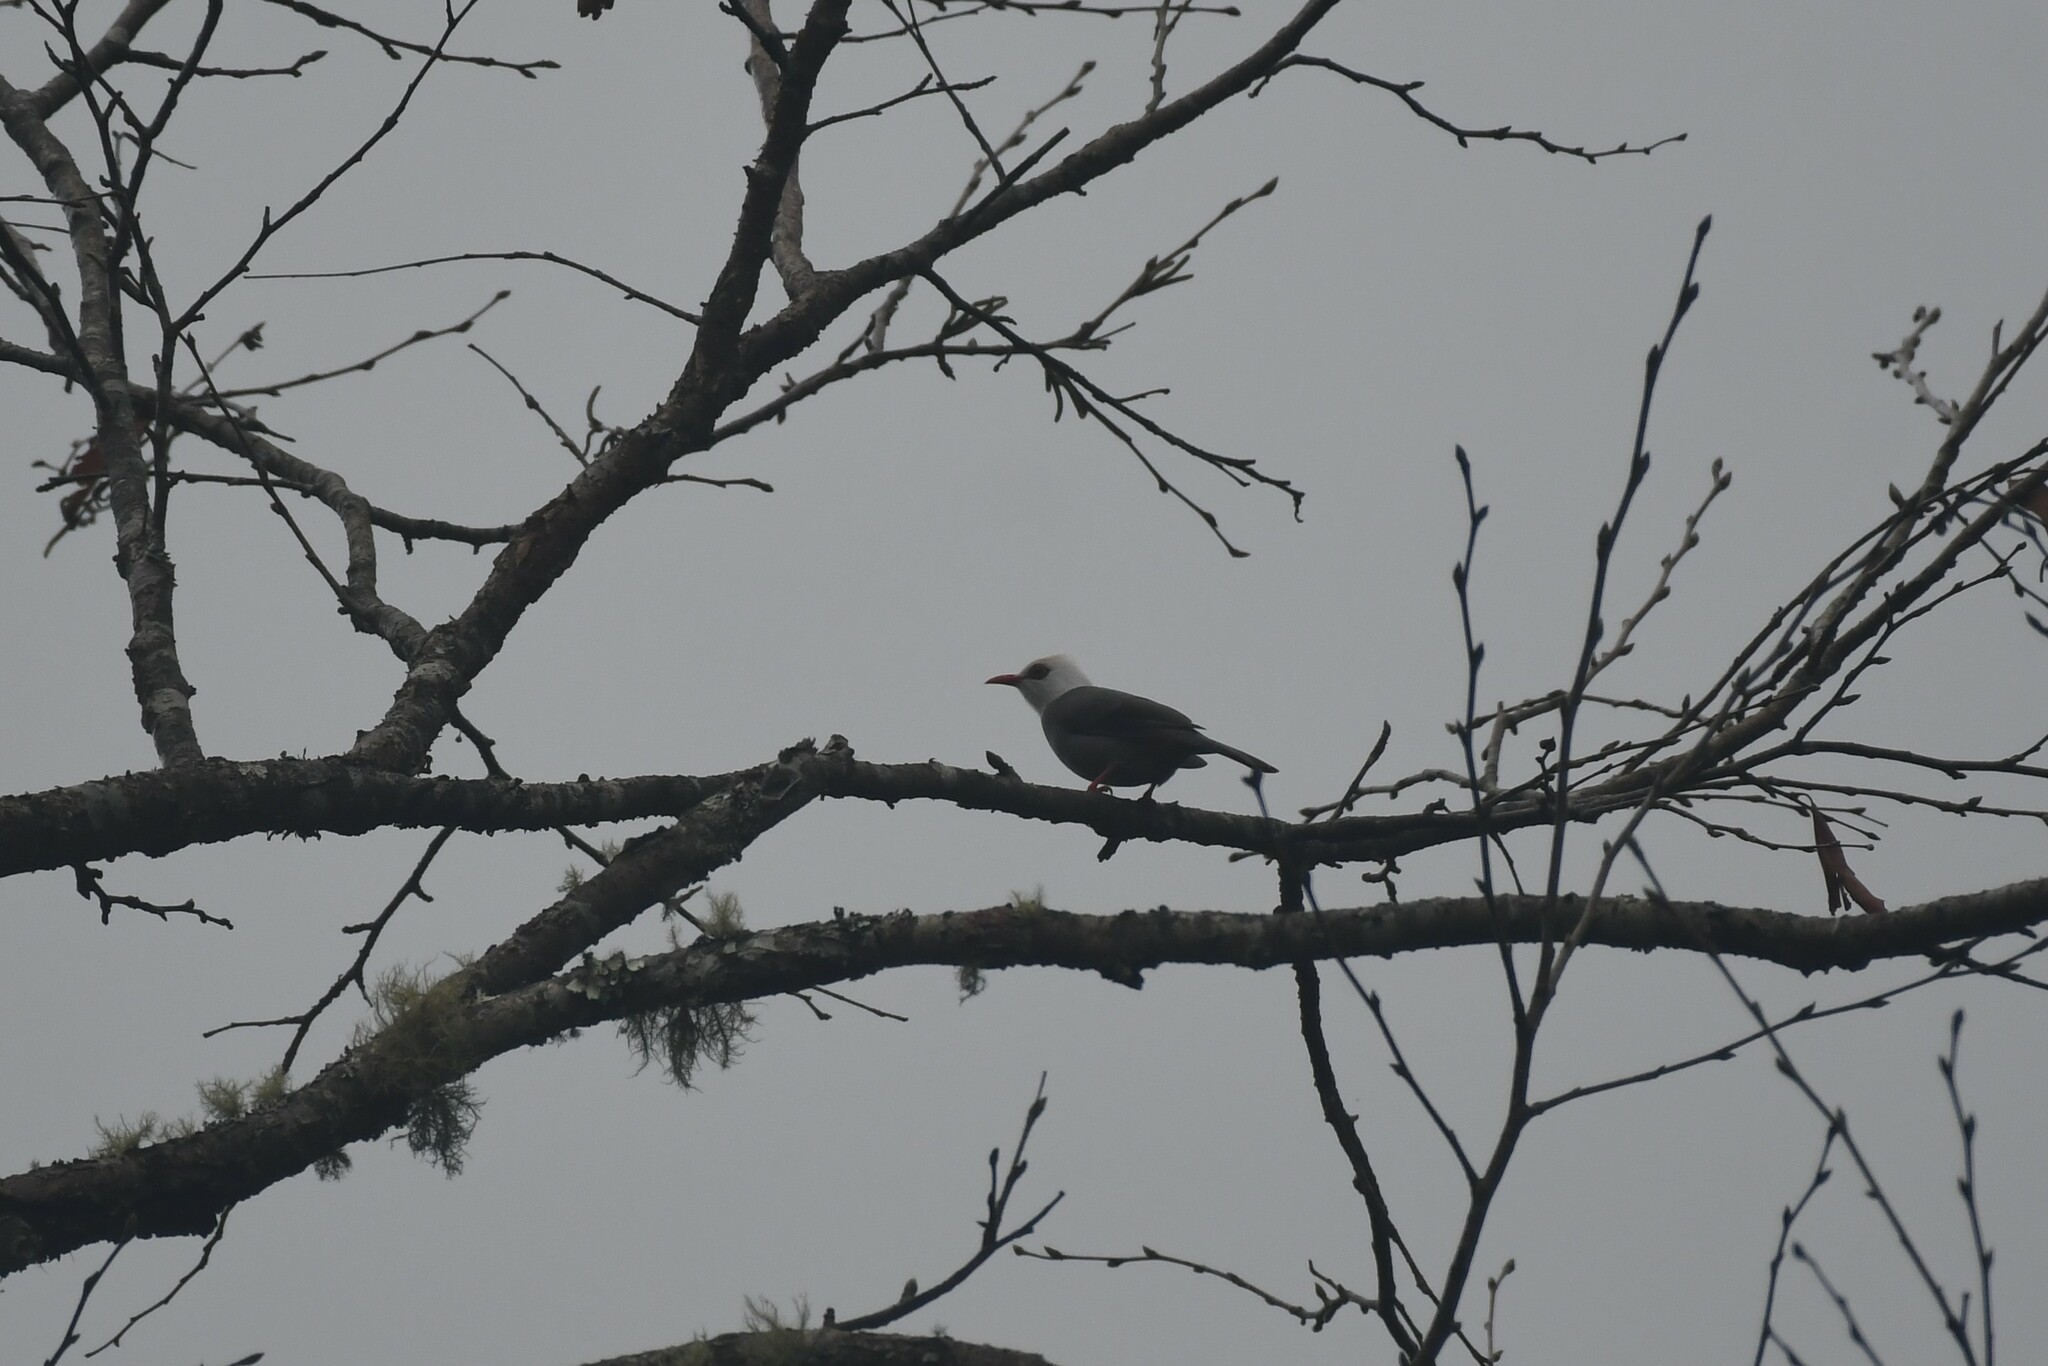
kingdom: Animalia
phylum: Chordata
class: Aves
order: Passeriformes
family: Pycnonotidae
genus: Cerasophila
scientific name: Cerasophila thompsoni
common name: White-headed bulbul
